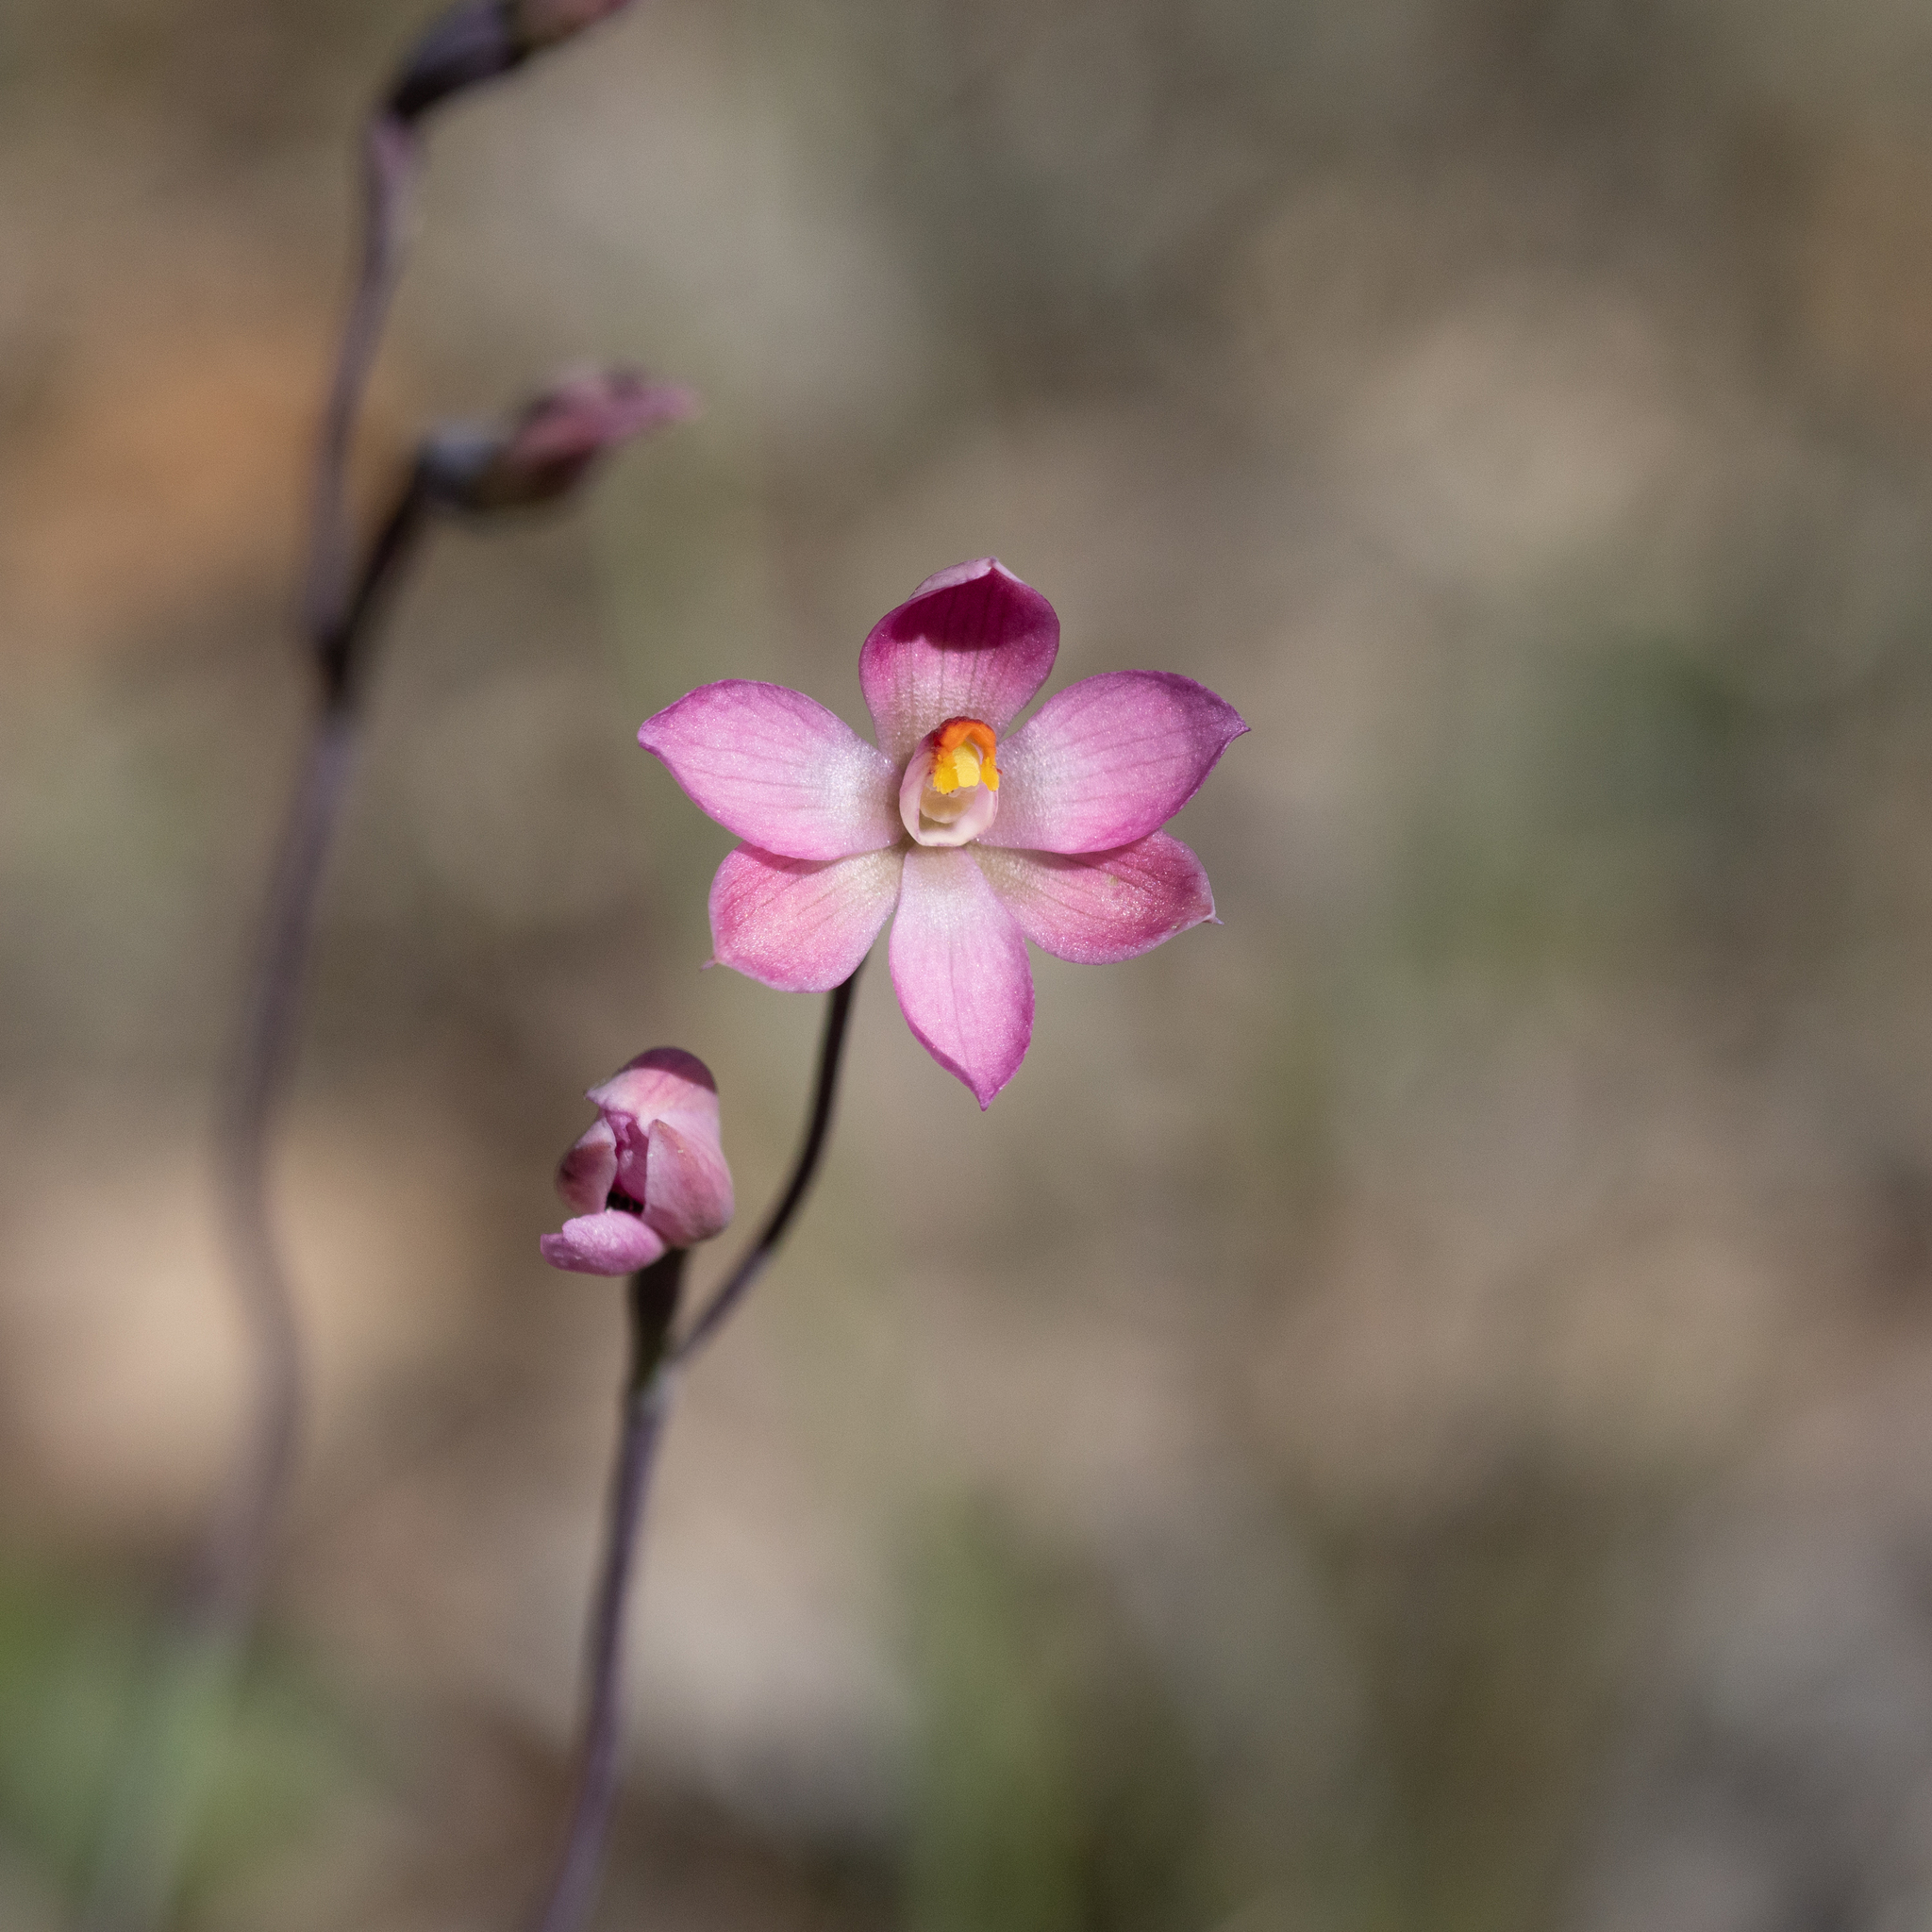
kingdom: Plantae
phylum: Tracheophyta
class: Liliopsida
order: Asparagales
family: Orchidaceae
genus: Thelymitra
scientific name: Thelymitra rubra
